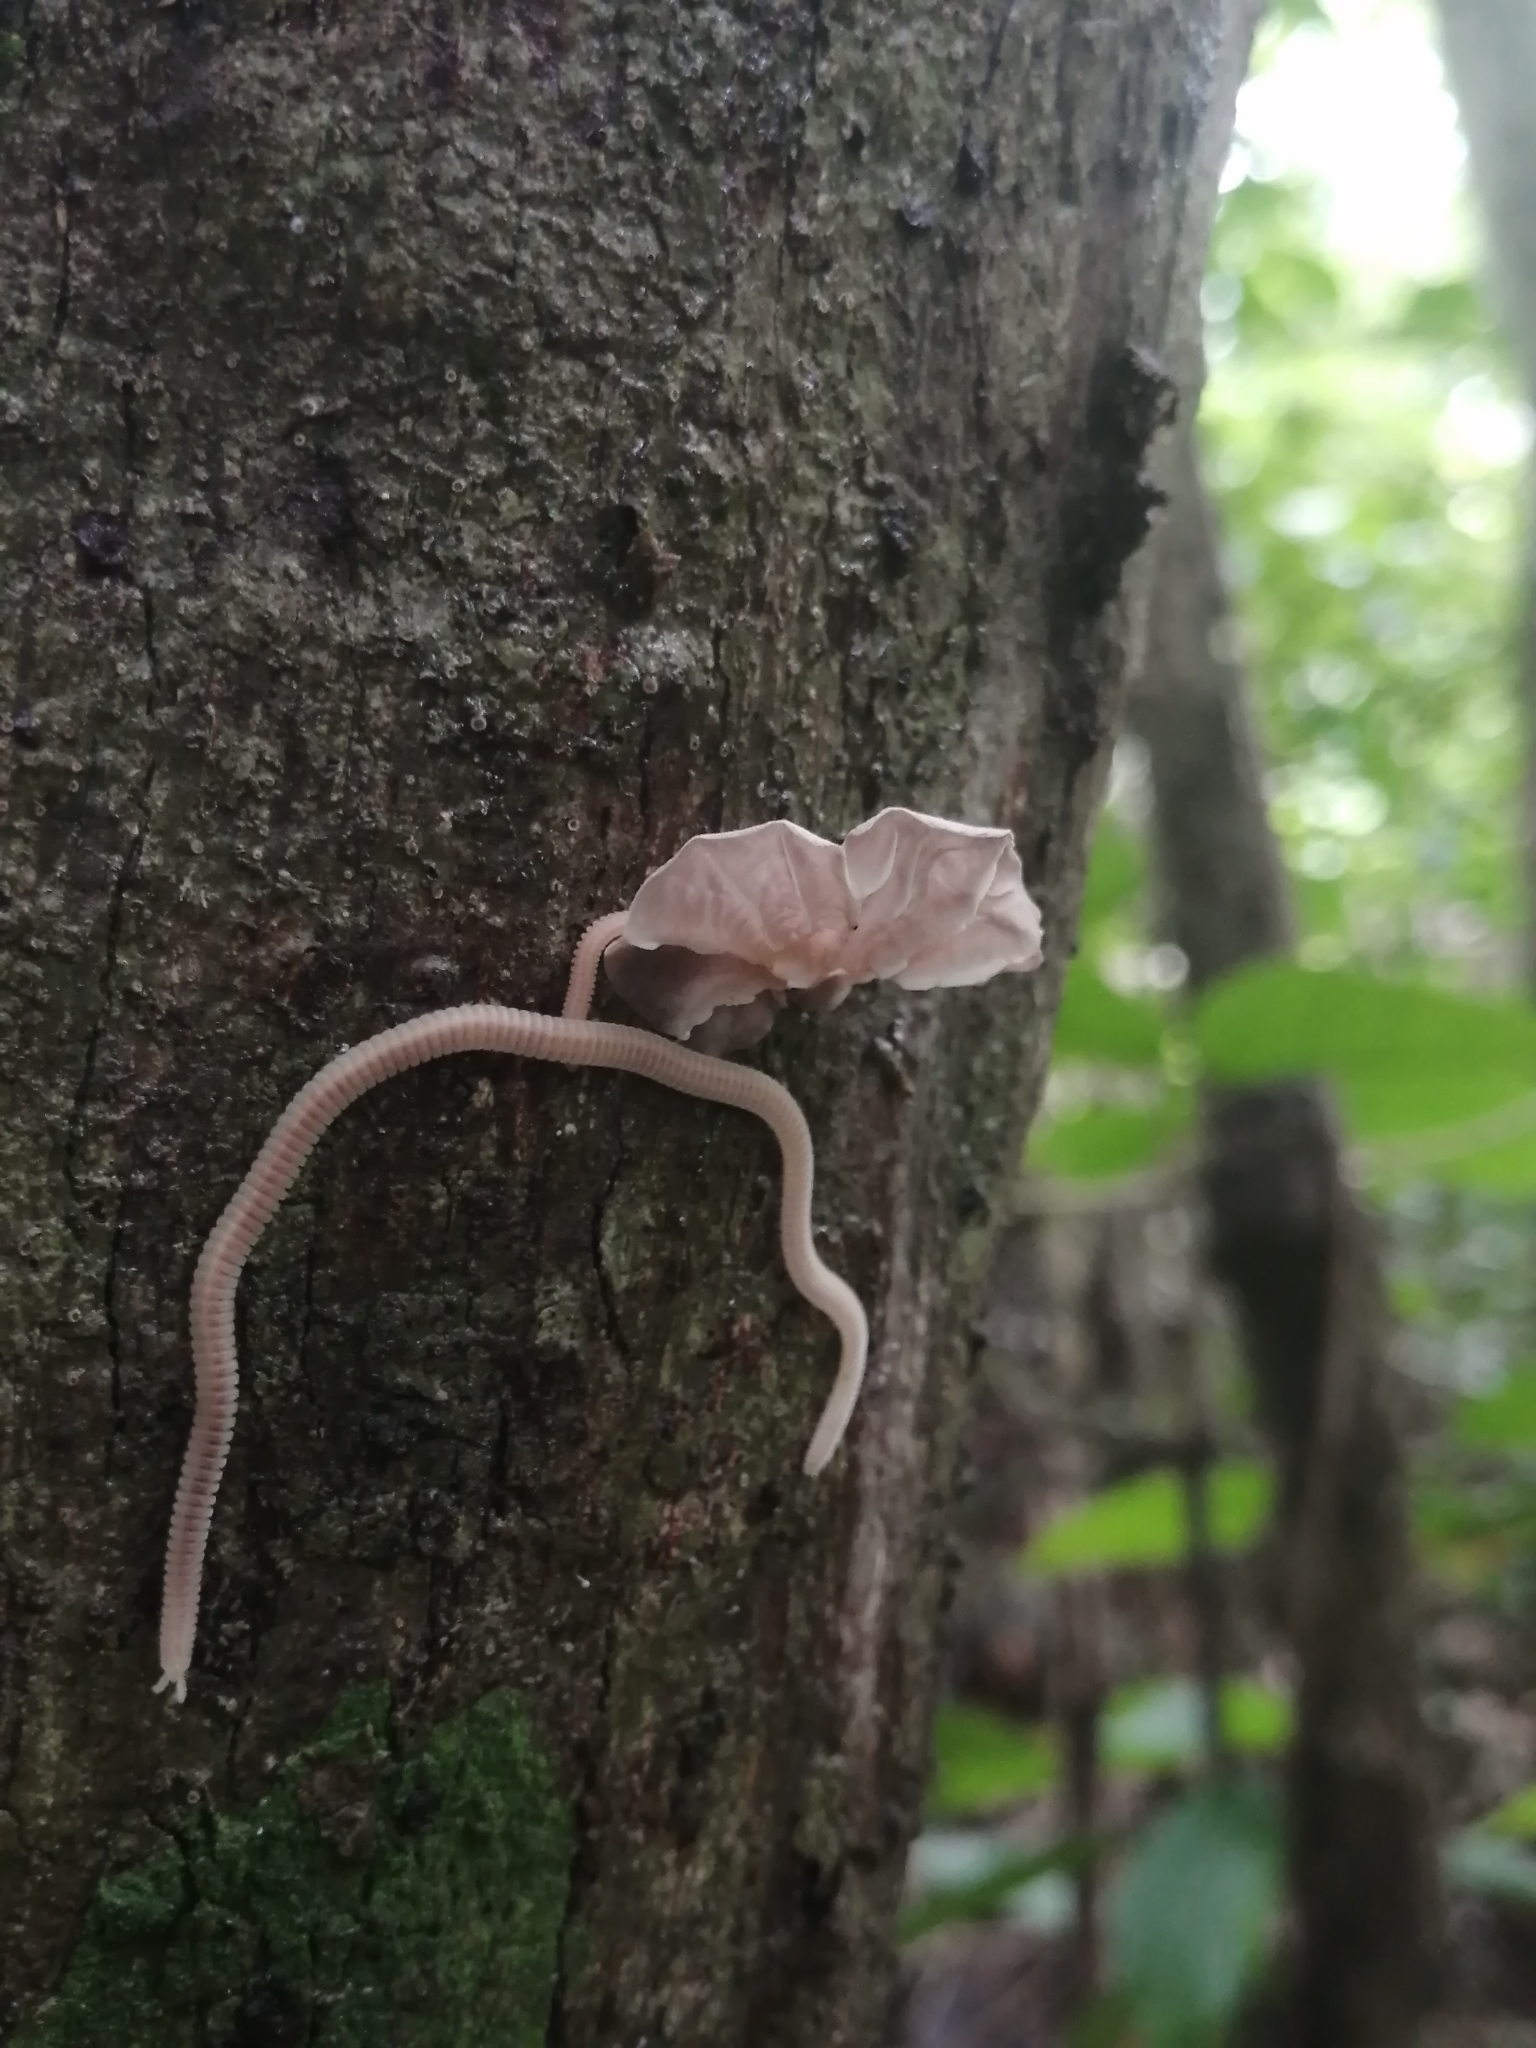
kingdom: Fungi
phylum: Basidiomycota
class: Agaricomycetes
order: Agaricales
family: Omphalotaceae
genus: Marasmiellus
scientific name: Marasmiellus candidus
